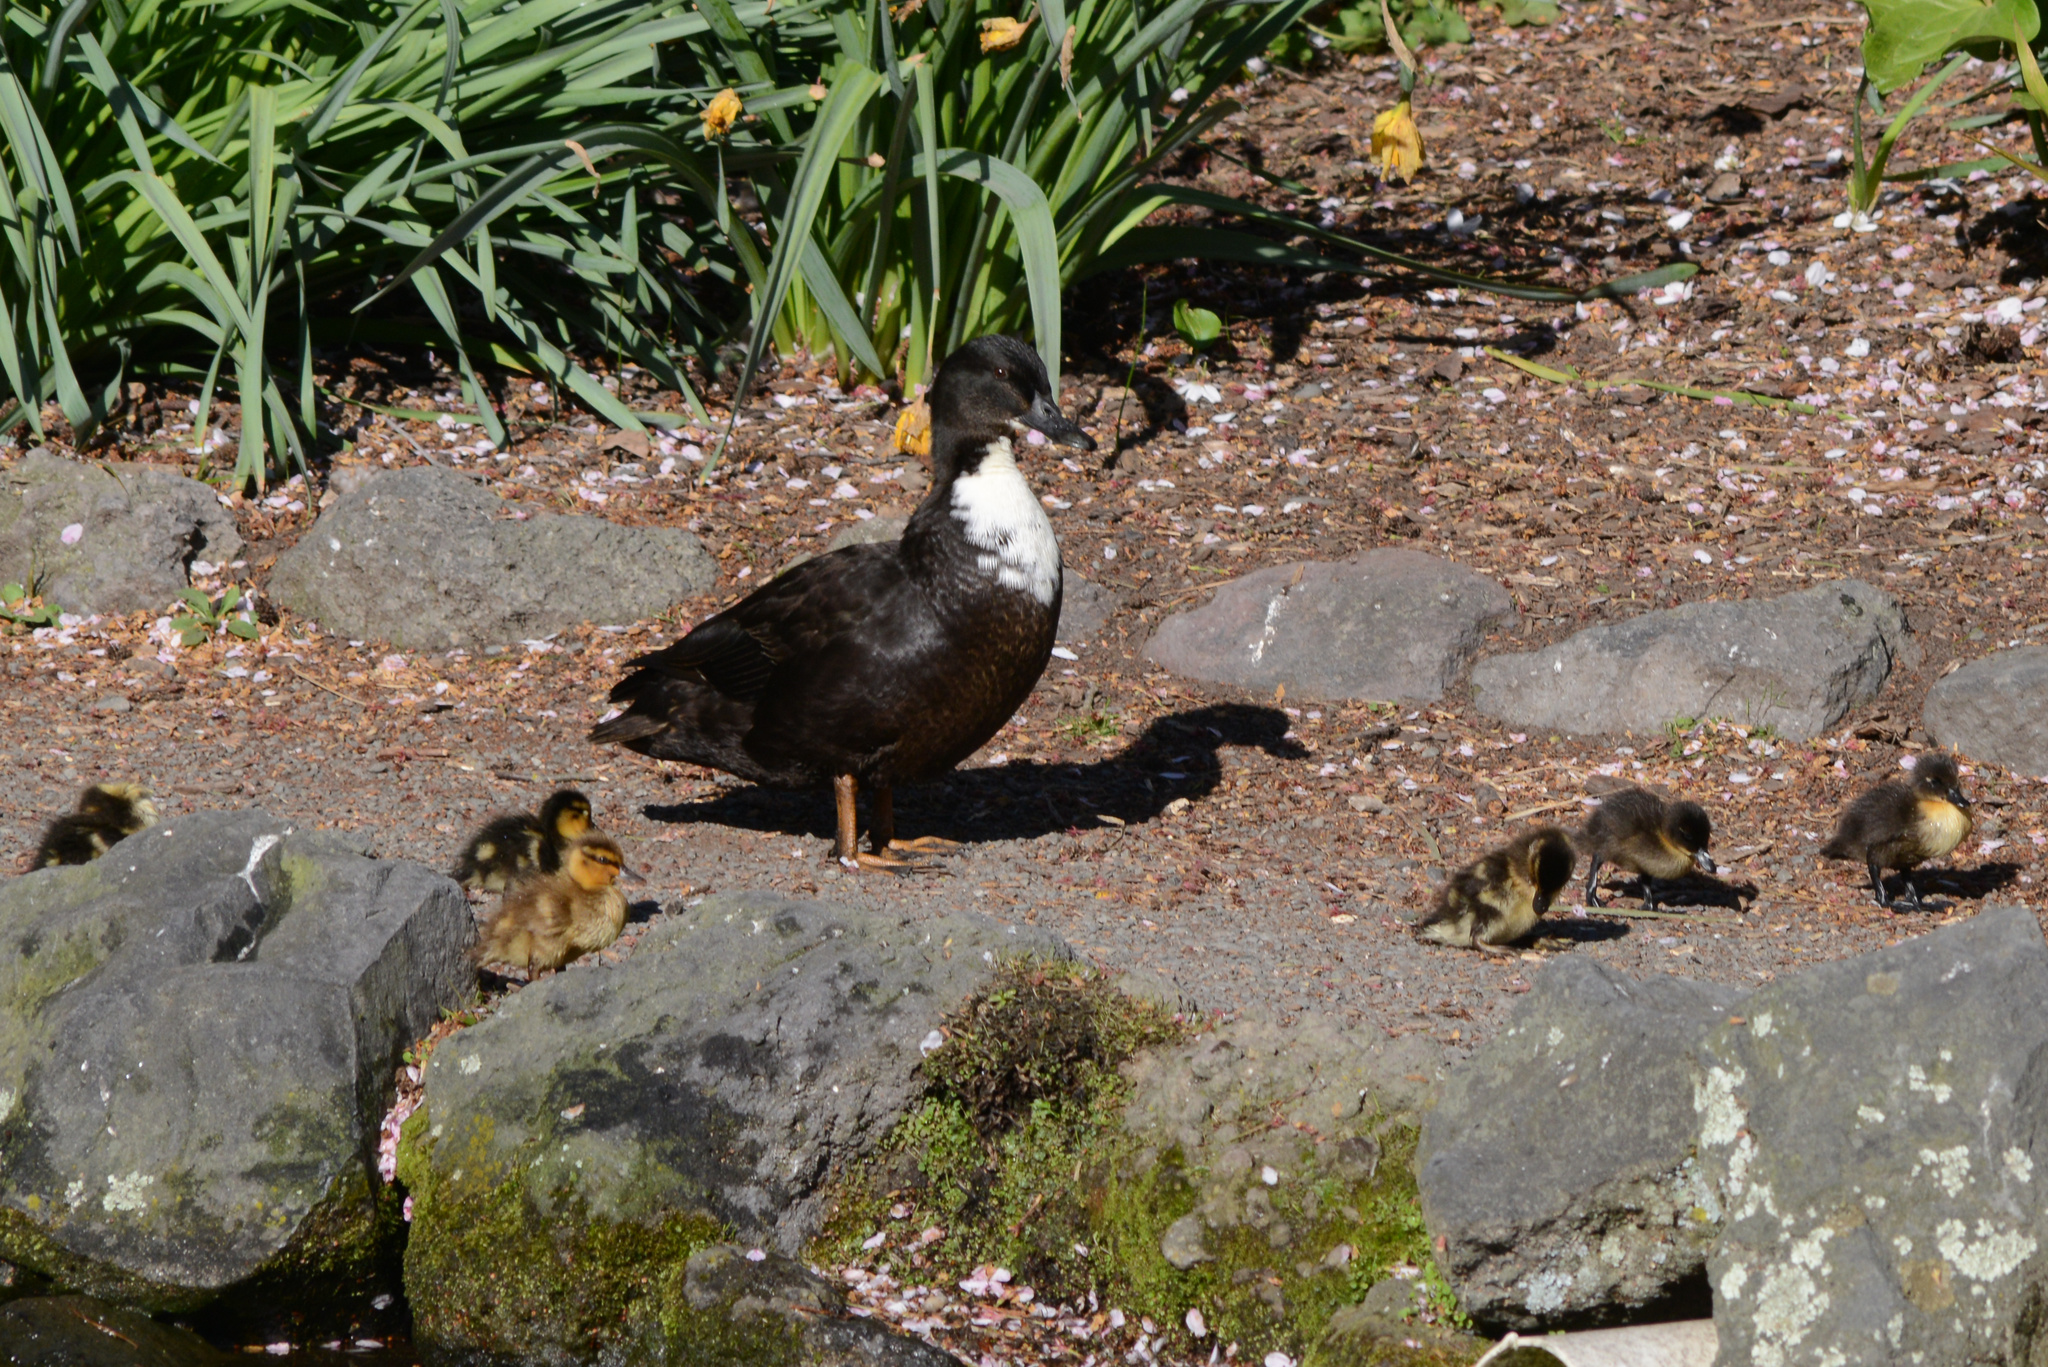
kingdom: Animalia
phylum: Chordata
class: Aves
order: Anseriformes
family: Anatidae
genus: Anas
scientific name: Anas platyrhynchos
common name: Mallard
